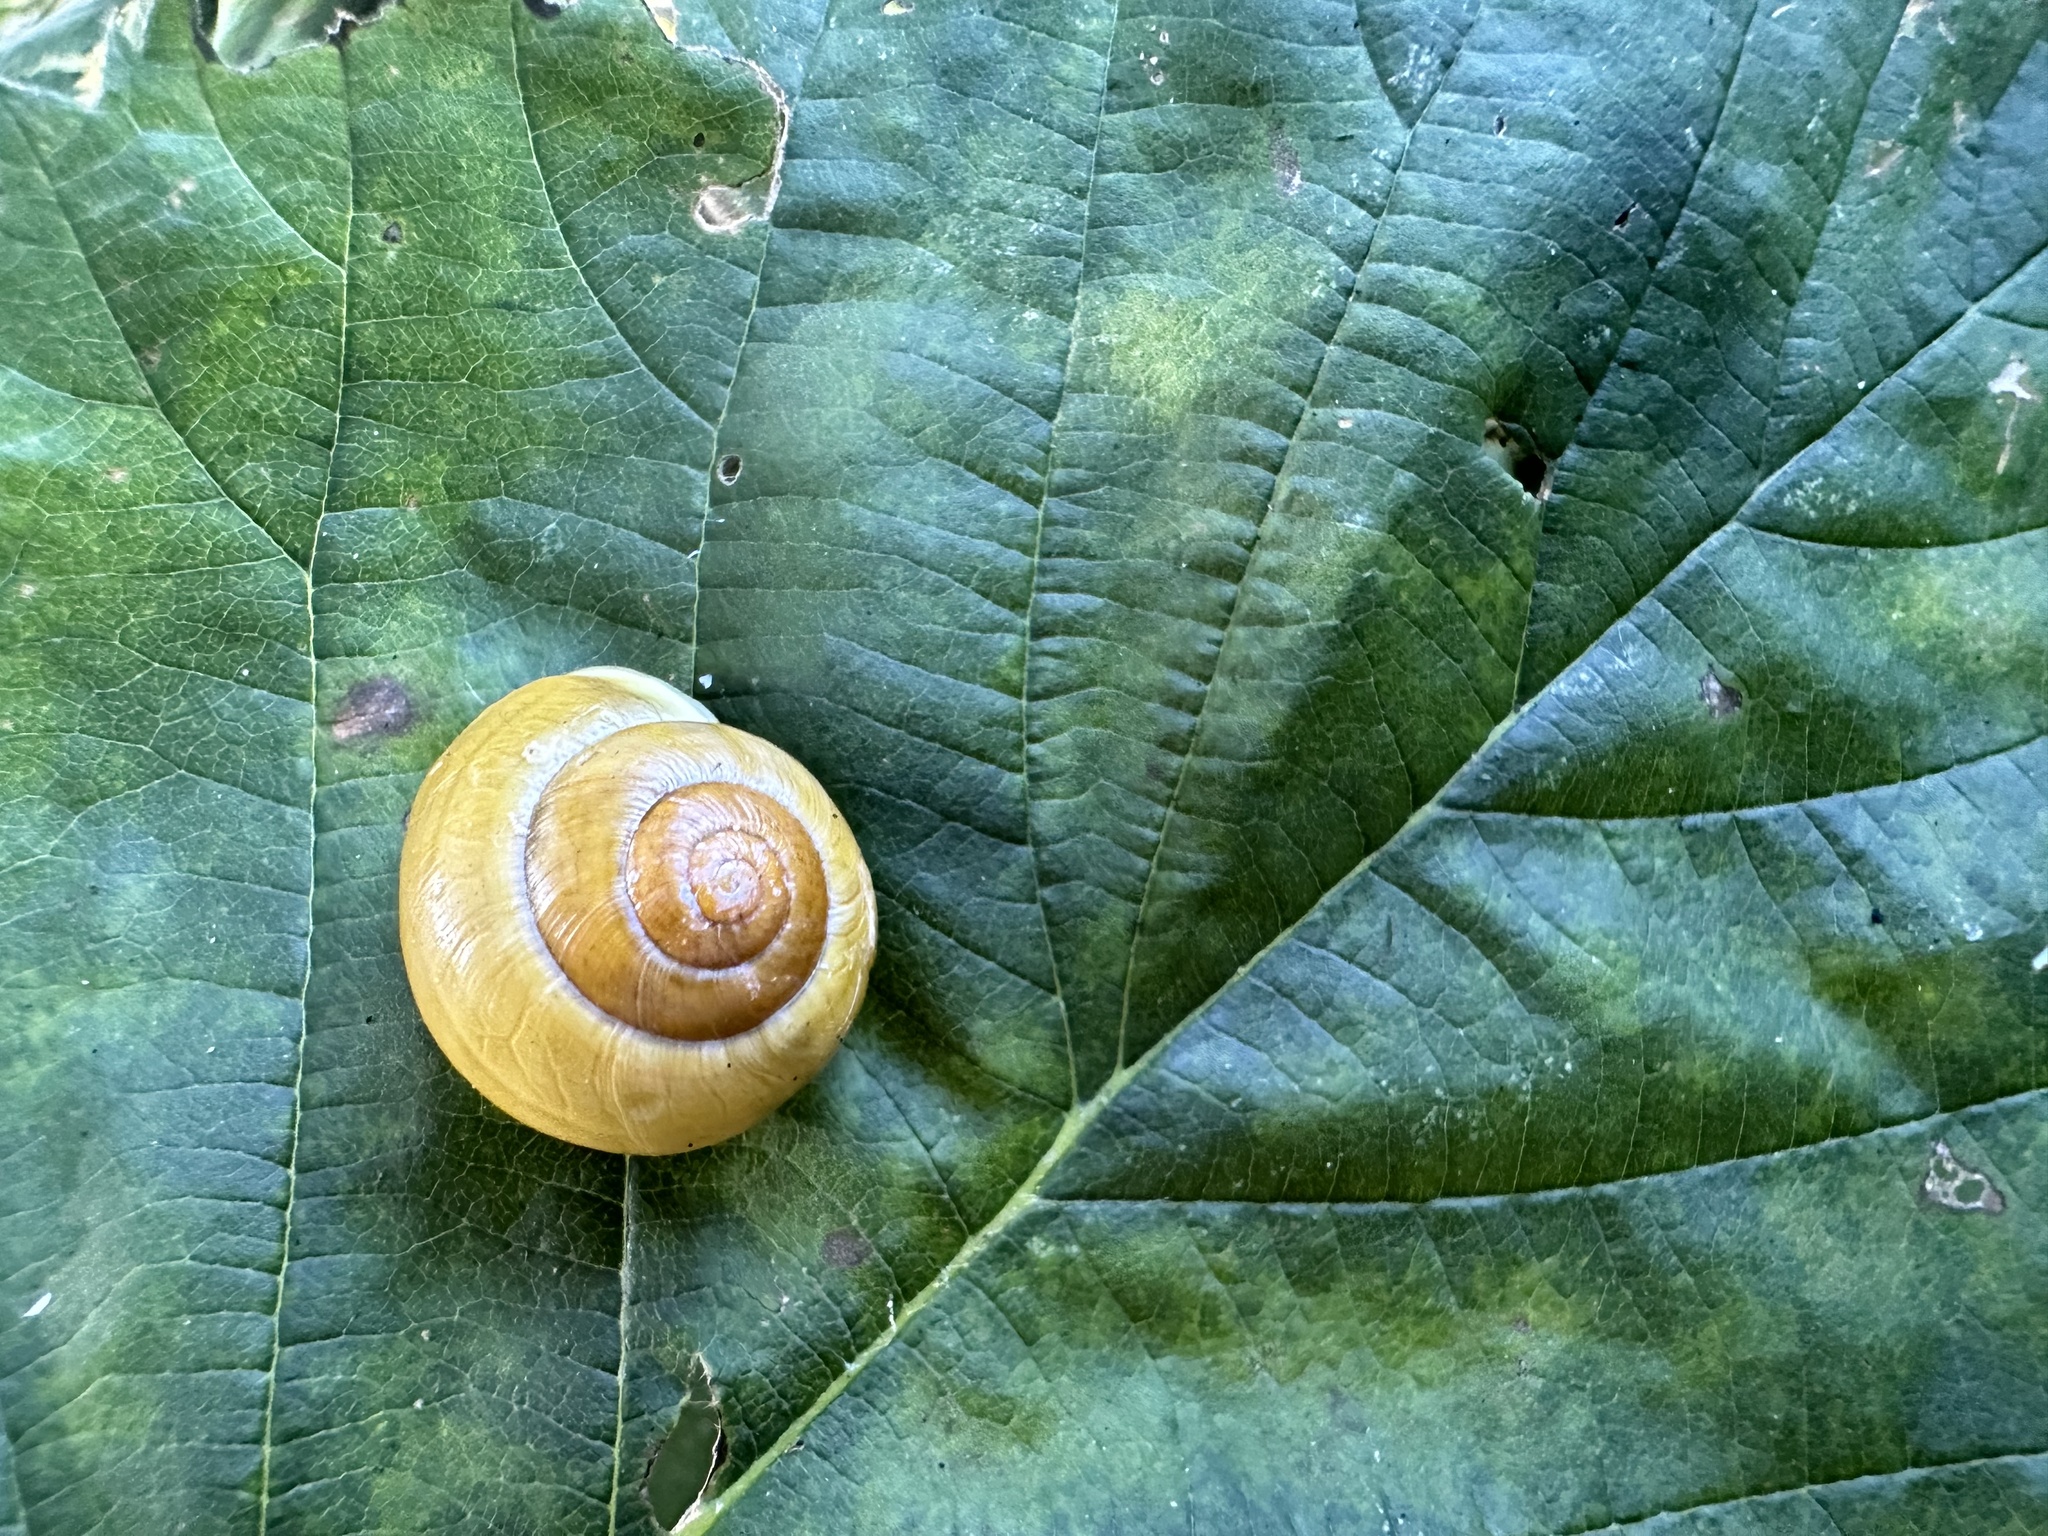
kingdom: Animalia
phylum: Mollusca
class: Gastropoda
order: Stylommatophora
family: Helicidae
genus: Cepaea
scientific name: Cepaea hortensis
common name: White-lip gardensnail
